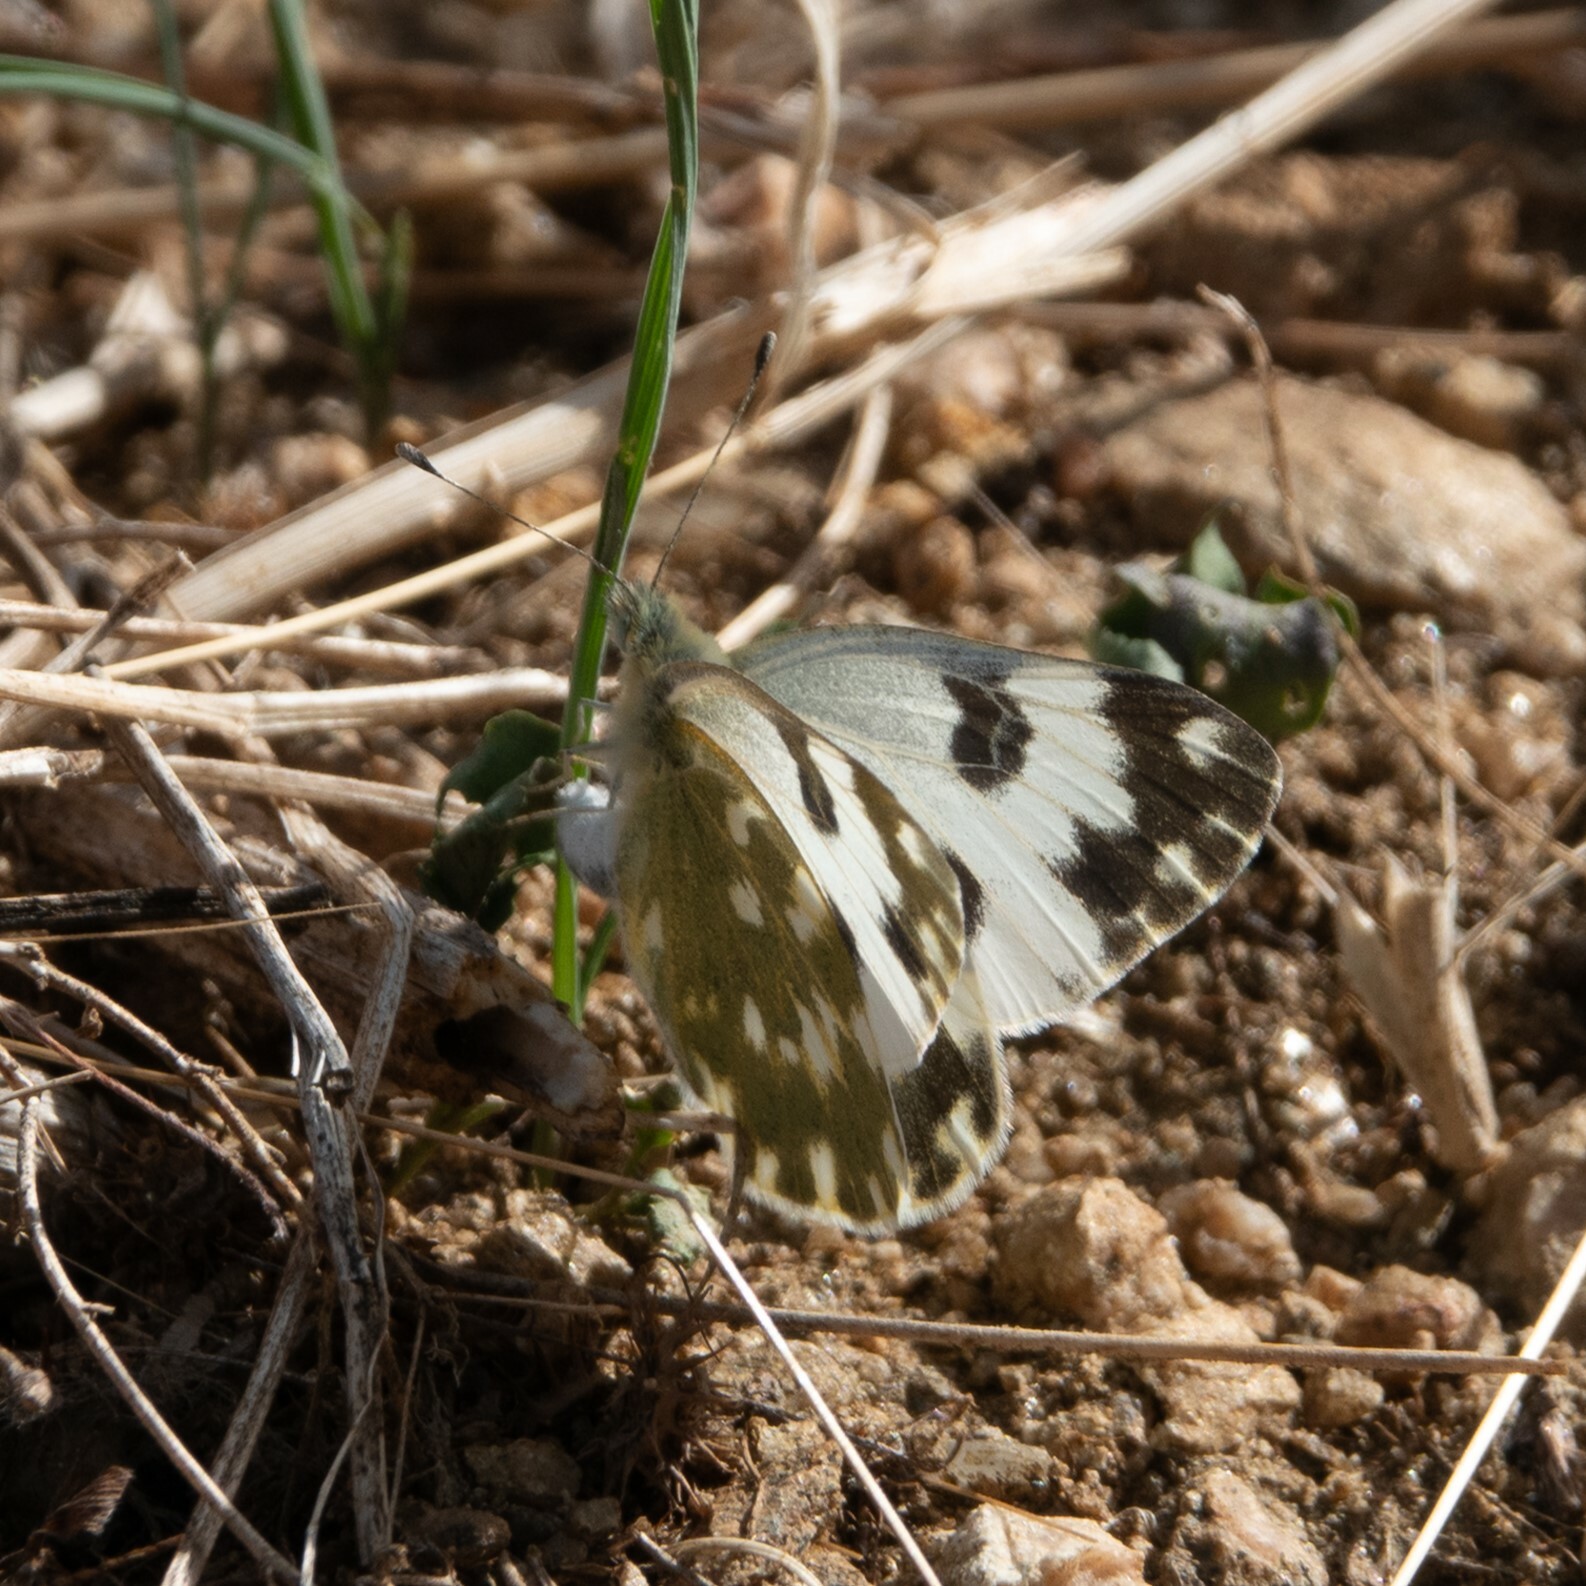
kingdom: Animalia
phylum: Arthropoda
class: Insecta
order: Lepidoptera
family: Pieridae
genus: Pontia
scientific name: Pontia edusa
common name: Eastern bath white
